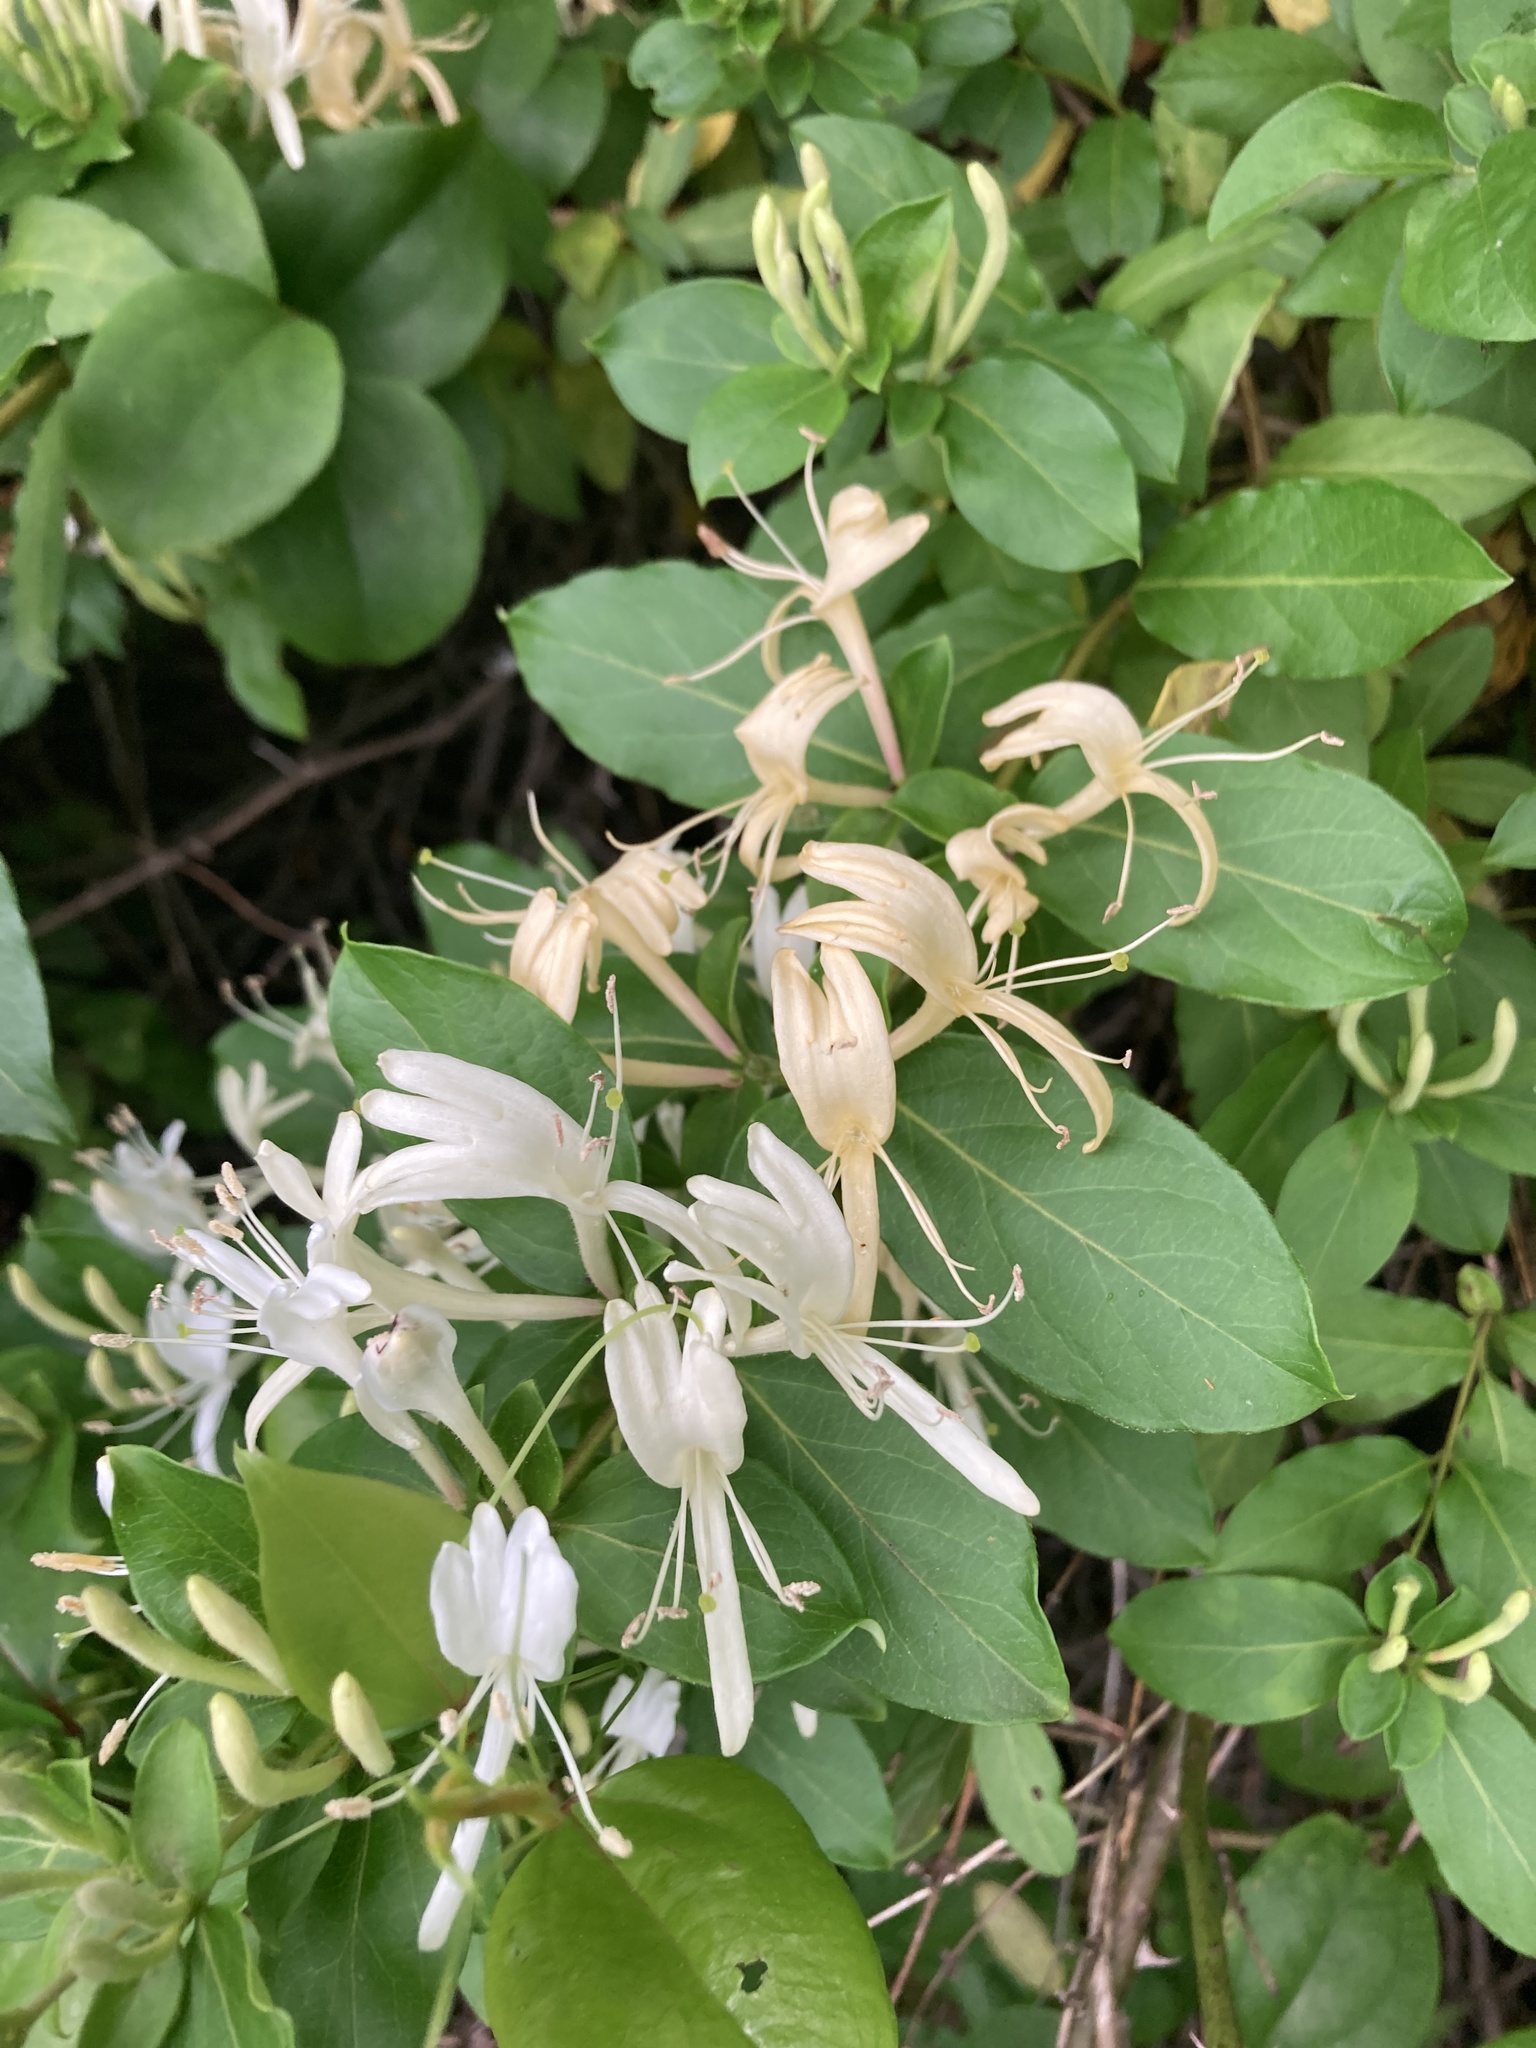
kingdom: Plantae
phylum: Tracheophyta
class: Magnoliopsida
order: Dipsacales
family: Caprifoliaceae
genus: Lonicera
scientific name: Lonicera japonica
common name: Japanese honeysuckle
